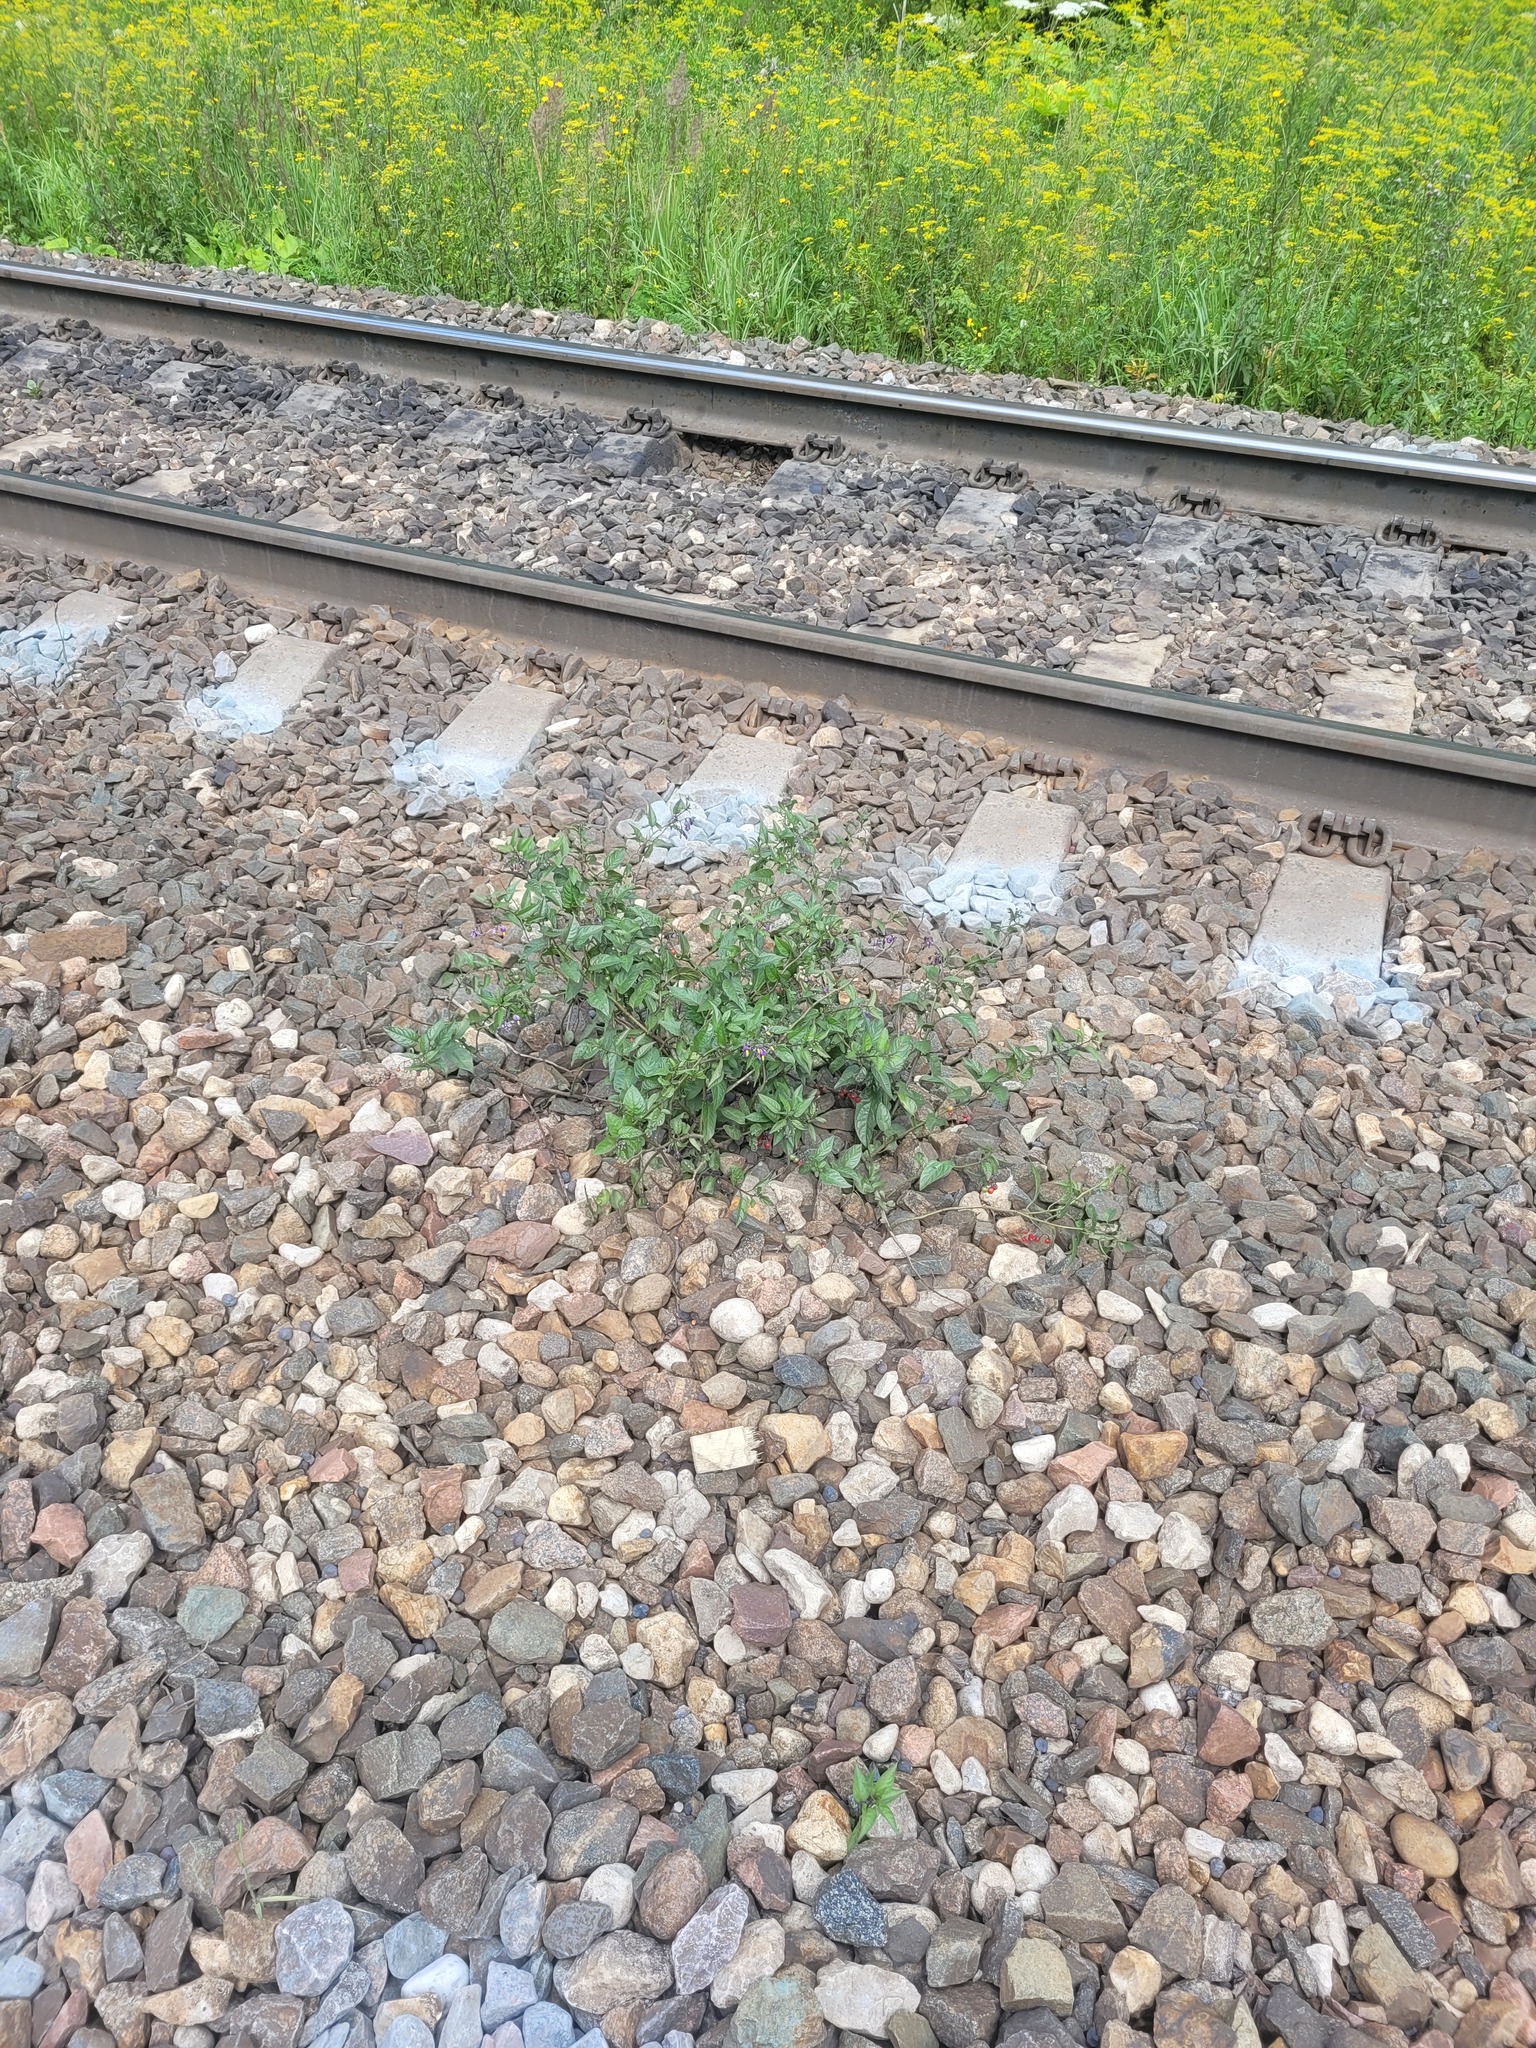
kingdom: Plantae
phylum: Tracheophyta
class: Magnoliopsida
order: Solanales
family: Solanaceae
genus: Solanum
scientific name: Solanum dulcamara
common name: Climbing nightshade
